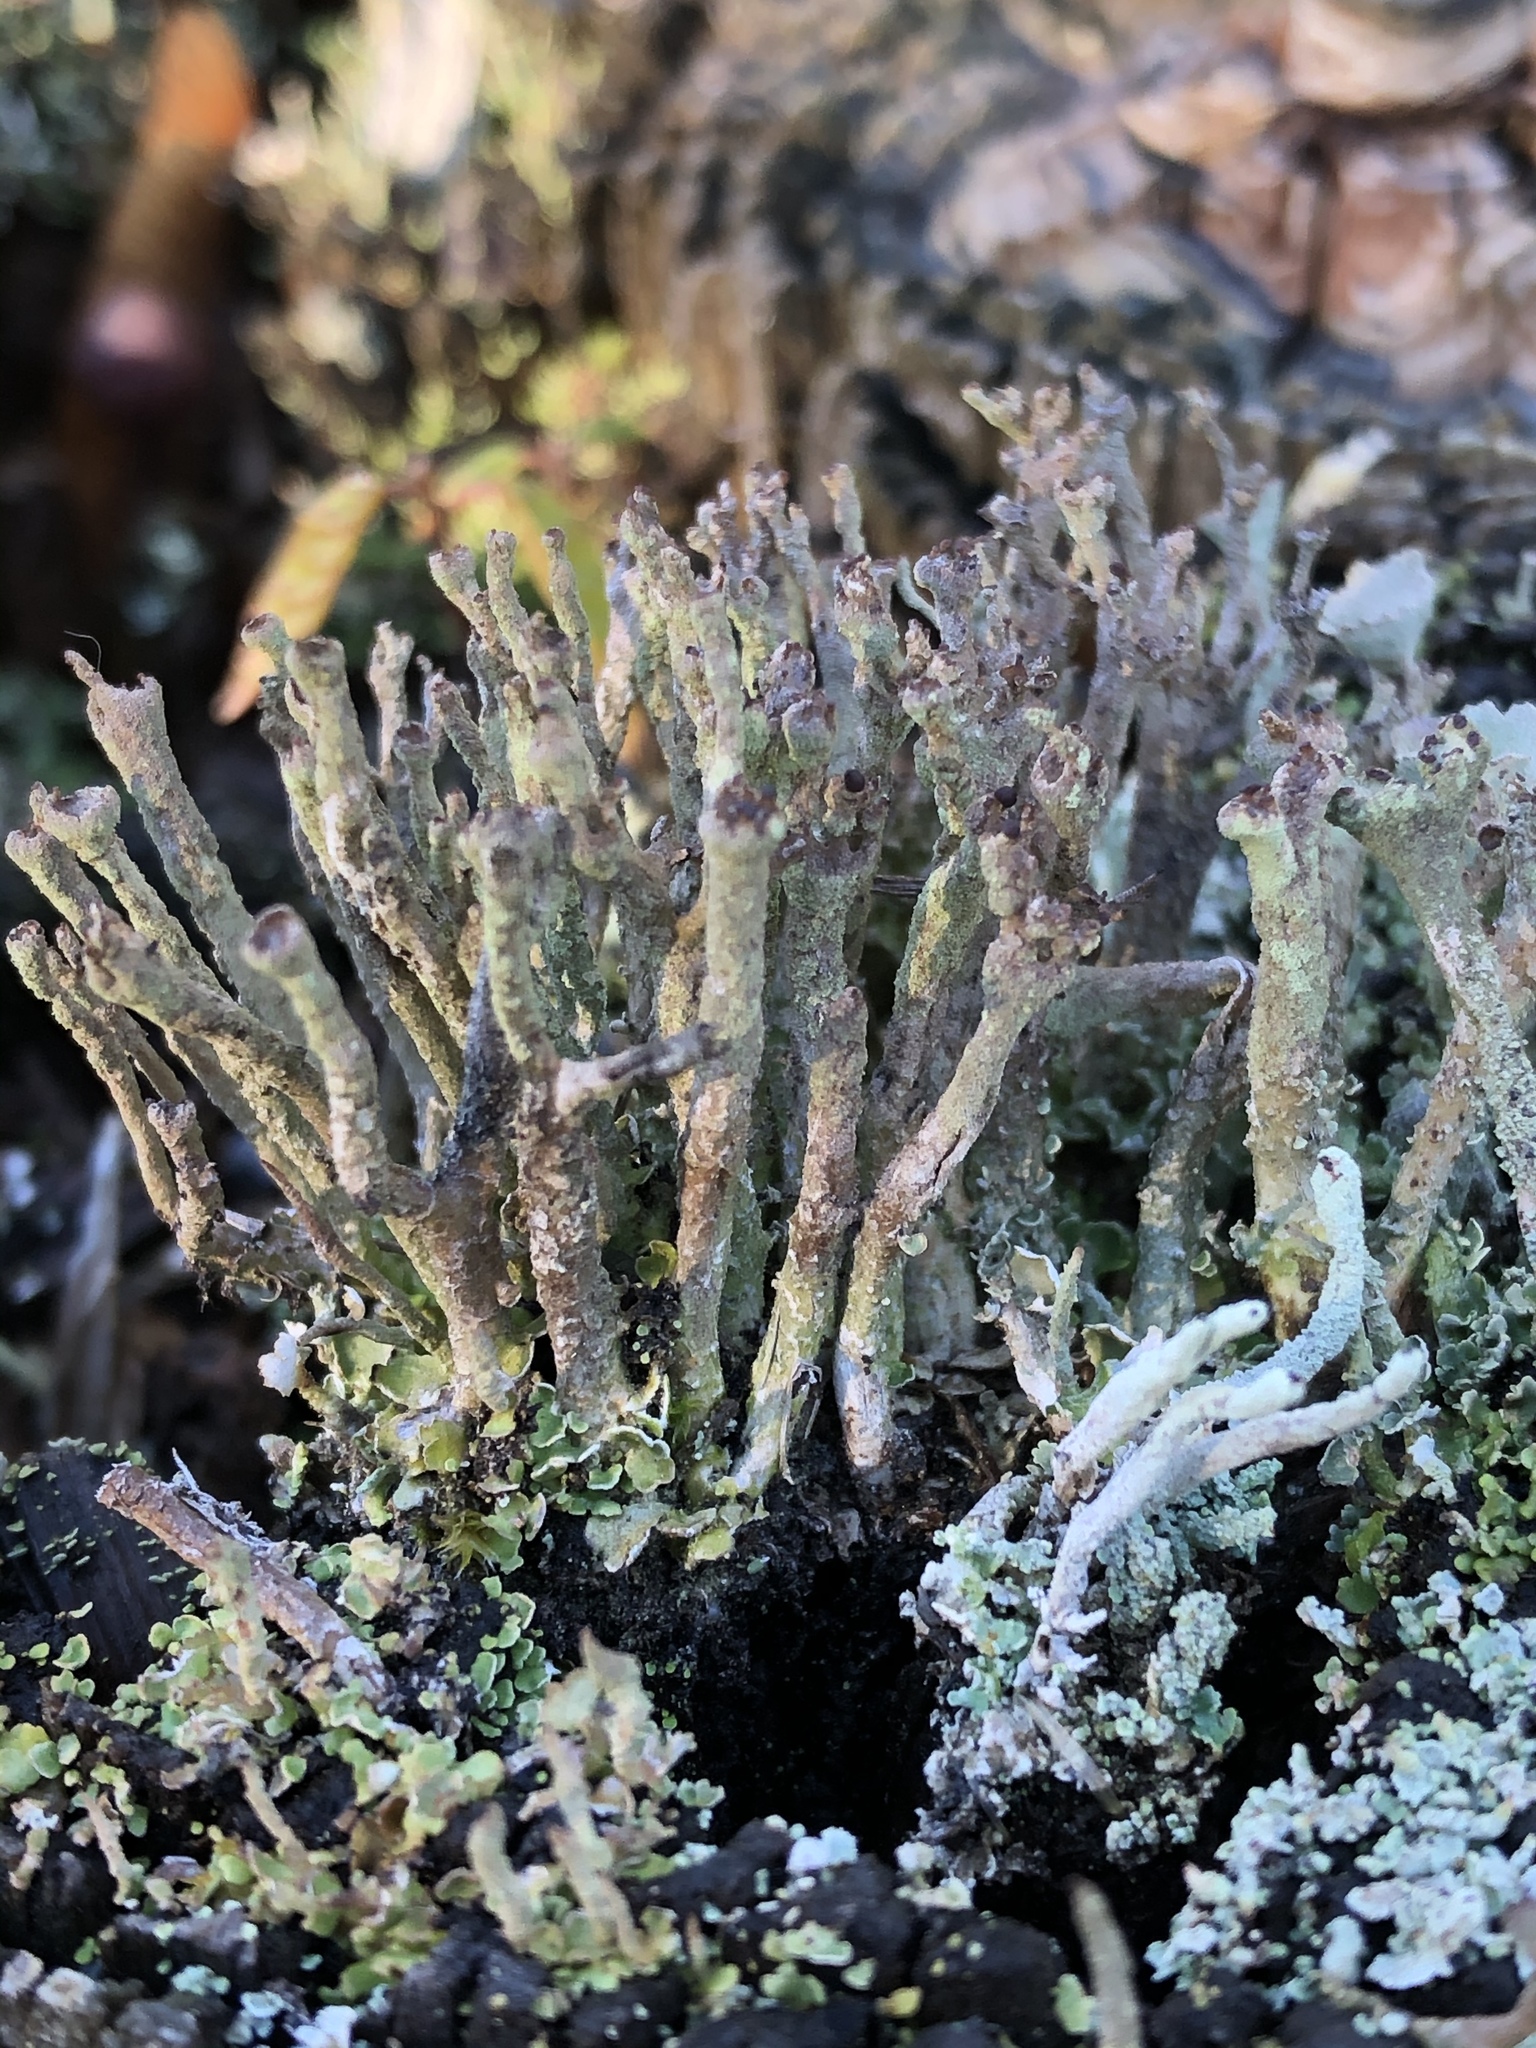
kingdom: Fungi
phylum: Ascomycota
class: Lecanoromycetes
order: Lecanorales
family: Cladoniaceae
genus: Cladonia
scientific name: Cladonia ochrochlora
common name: Smooth-footed powderhorn
